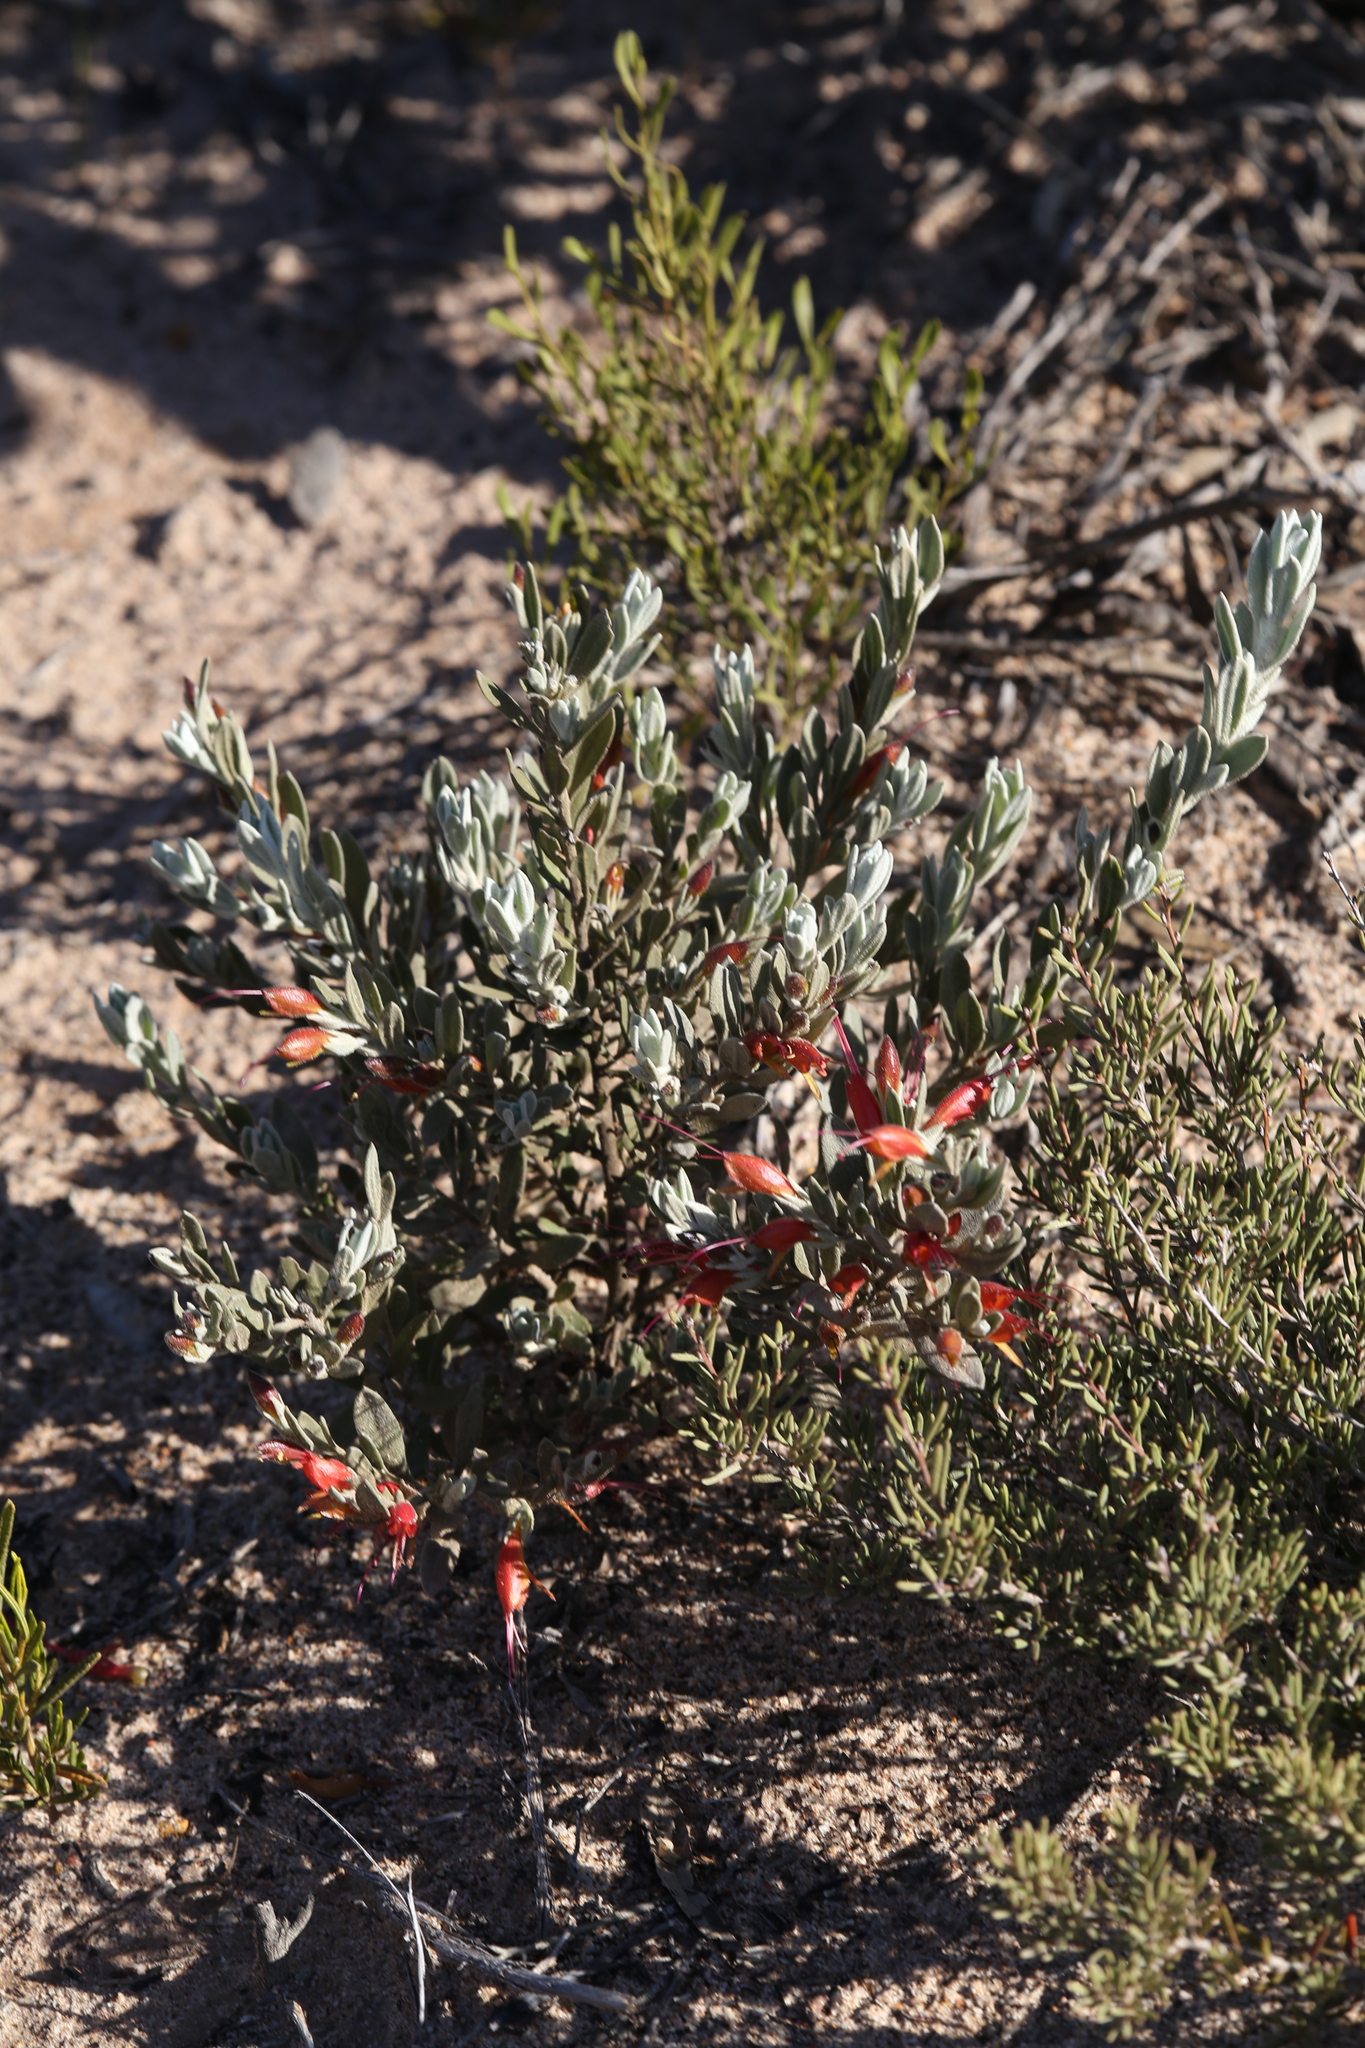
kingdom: Plantae
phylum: Tracheophyta
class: Magnoliopsida
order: Lamiales
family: Scrophulariaceae
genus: Eremophila
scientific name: Eremophila glabra
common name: Black-fuchsia
